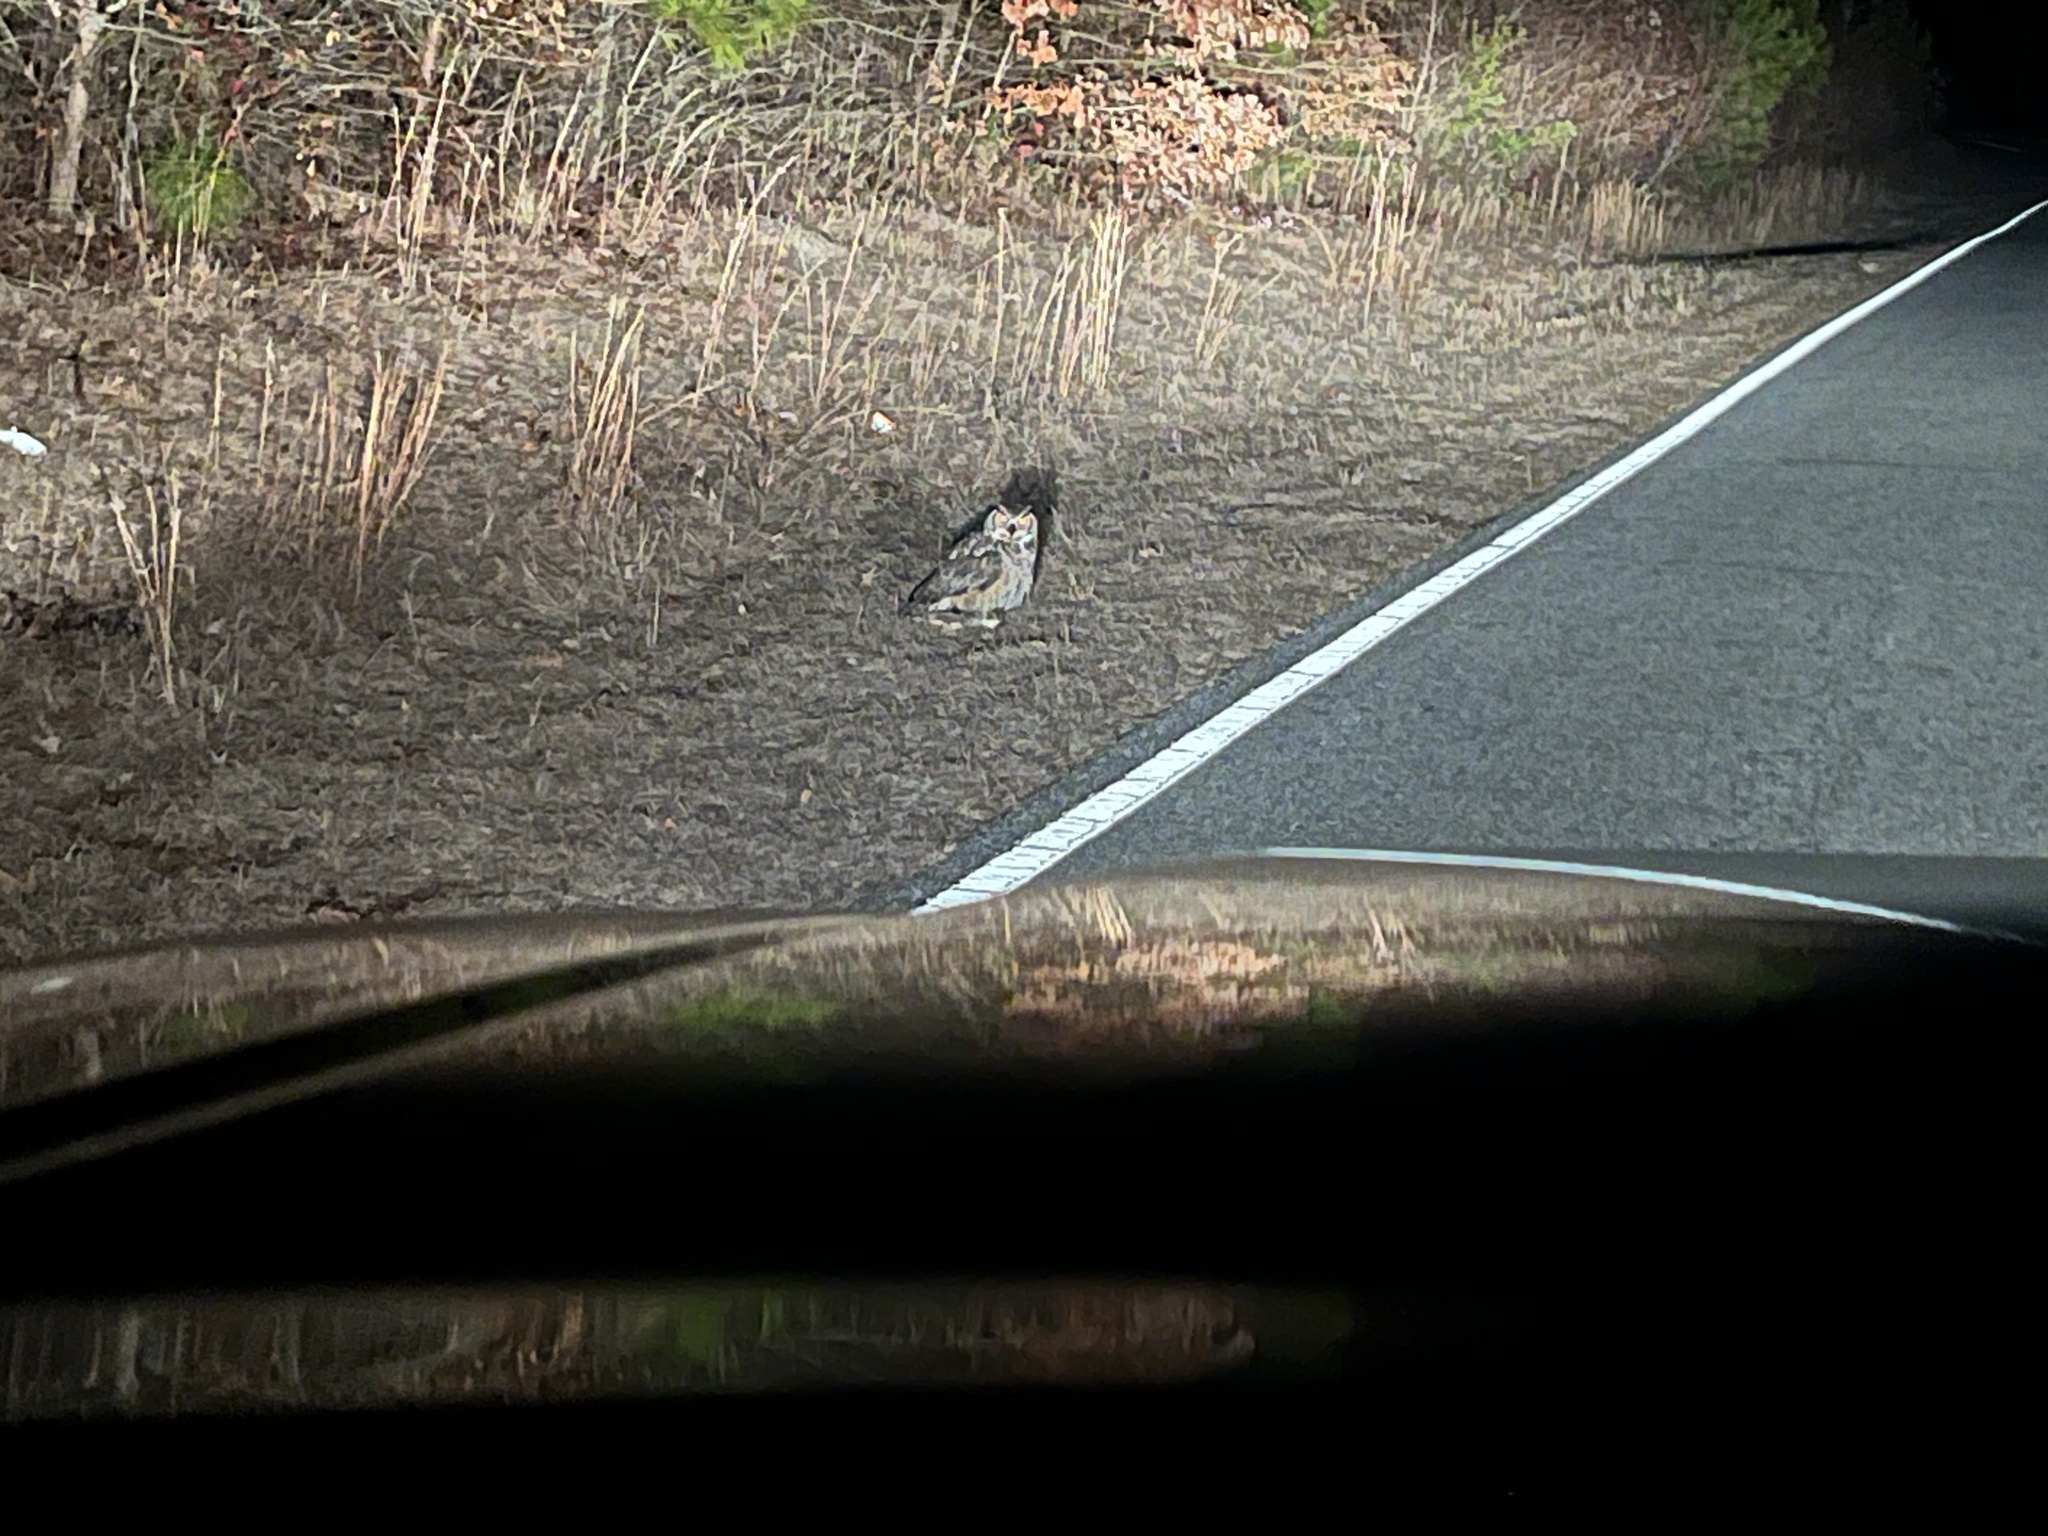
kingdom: Animalia
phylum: Chordata
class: Aves
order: Strigiformes
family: Strigidae
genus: Bubo
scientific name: Bubo virginianus
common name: Great horned owl
